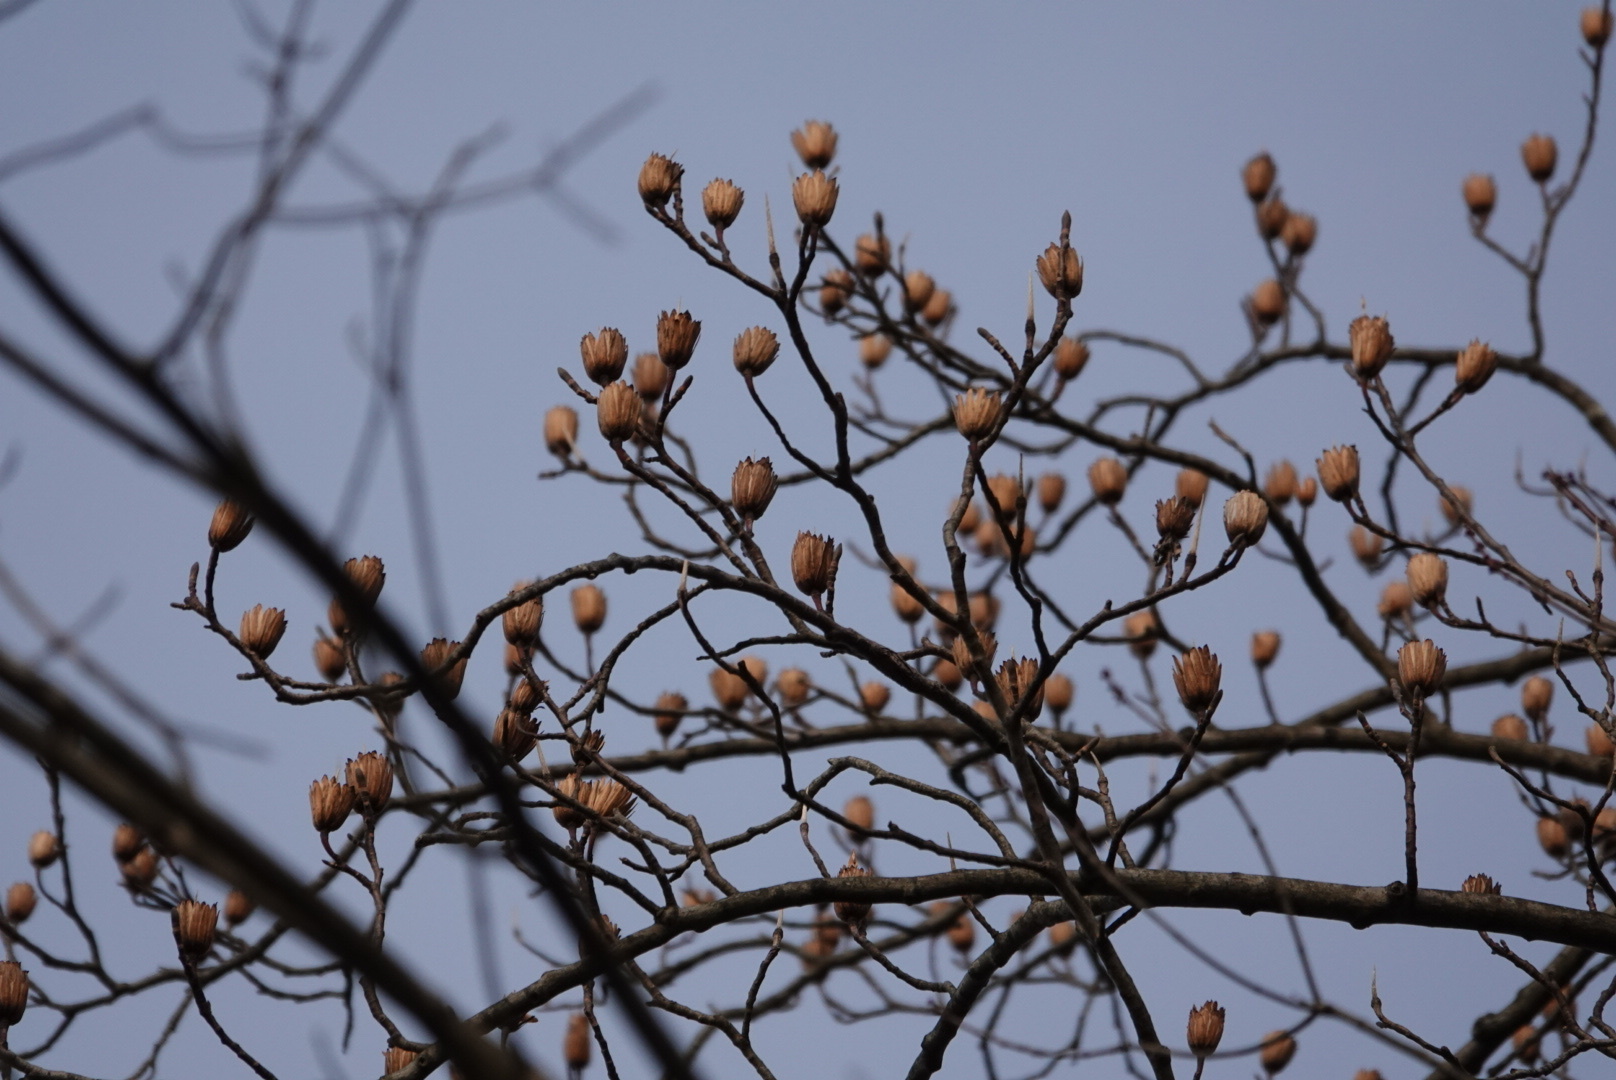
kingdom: Plantae
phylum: Tracheophyta
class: Magnoliopsida
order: Magnoliales
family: Magnoliaceae
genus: Liriodendron
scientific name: Liriodendron tulipifera
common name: Tulip tree
